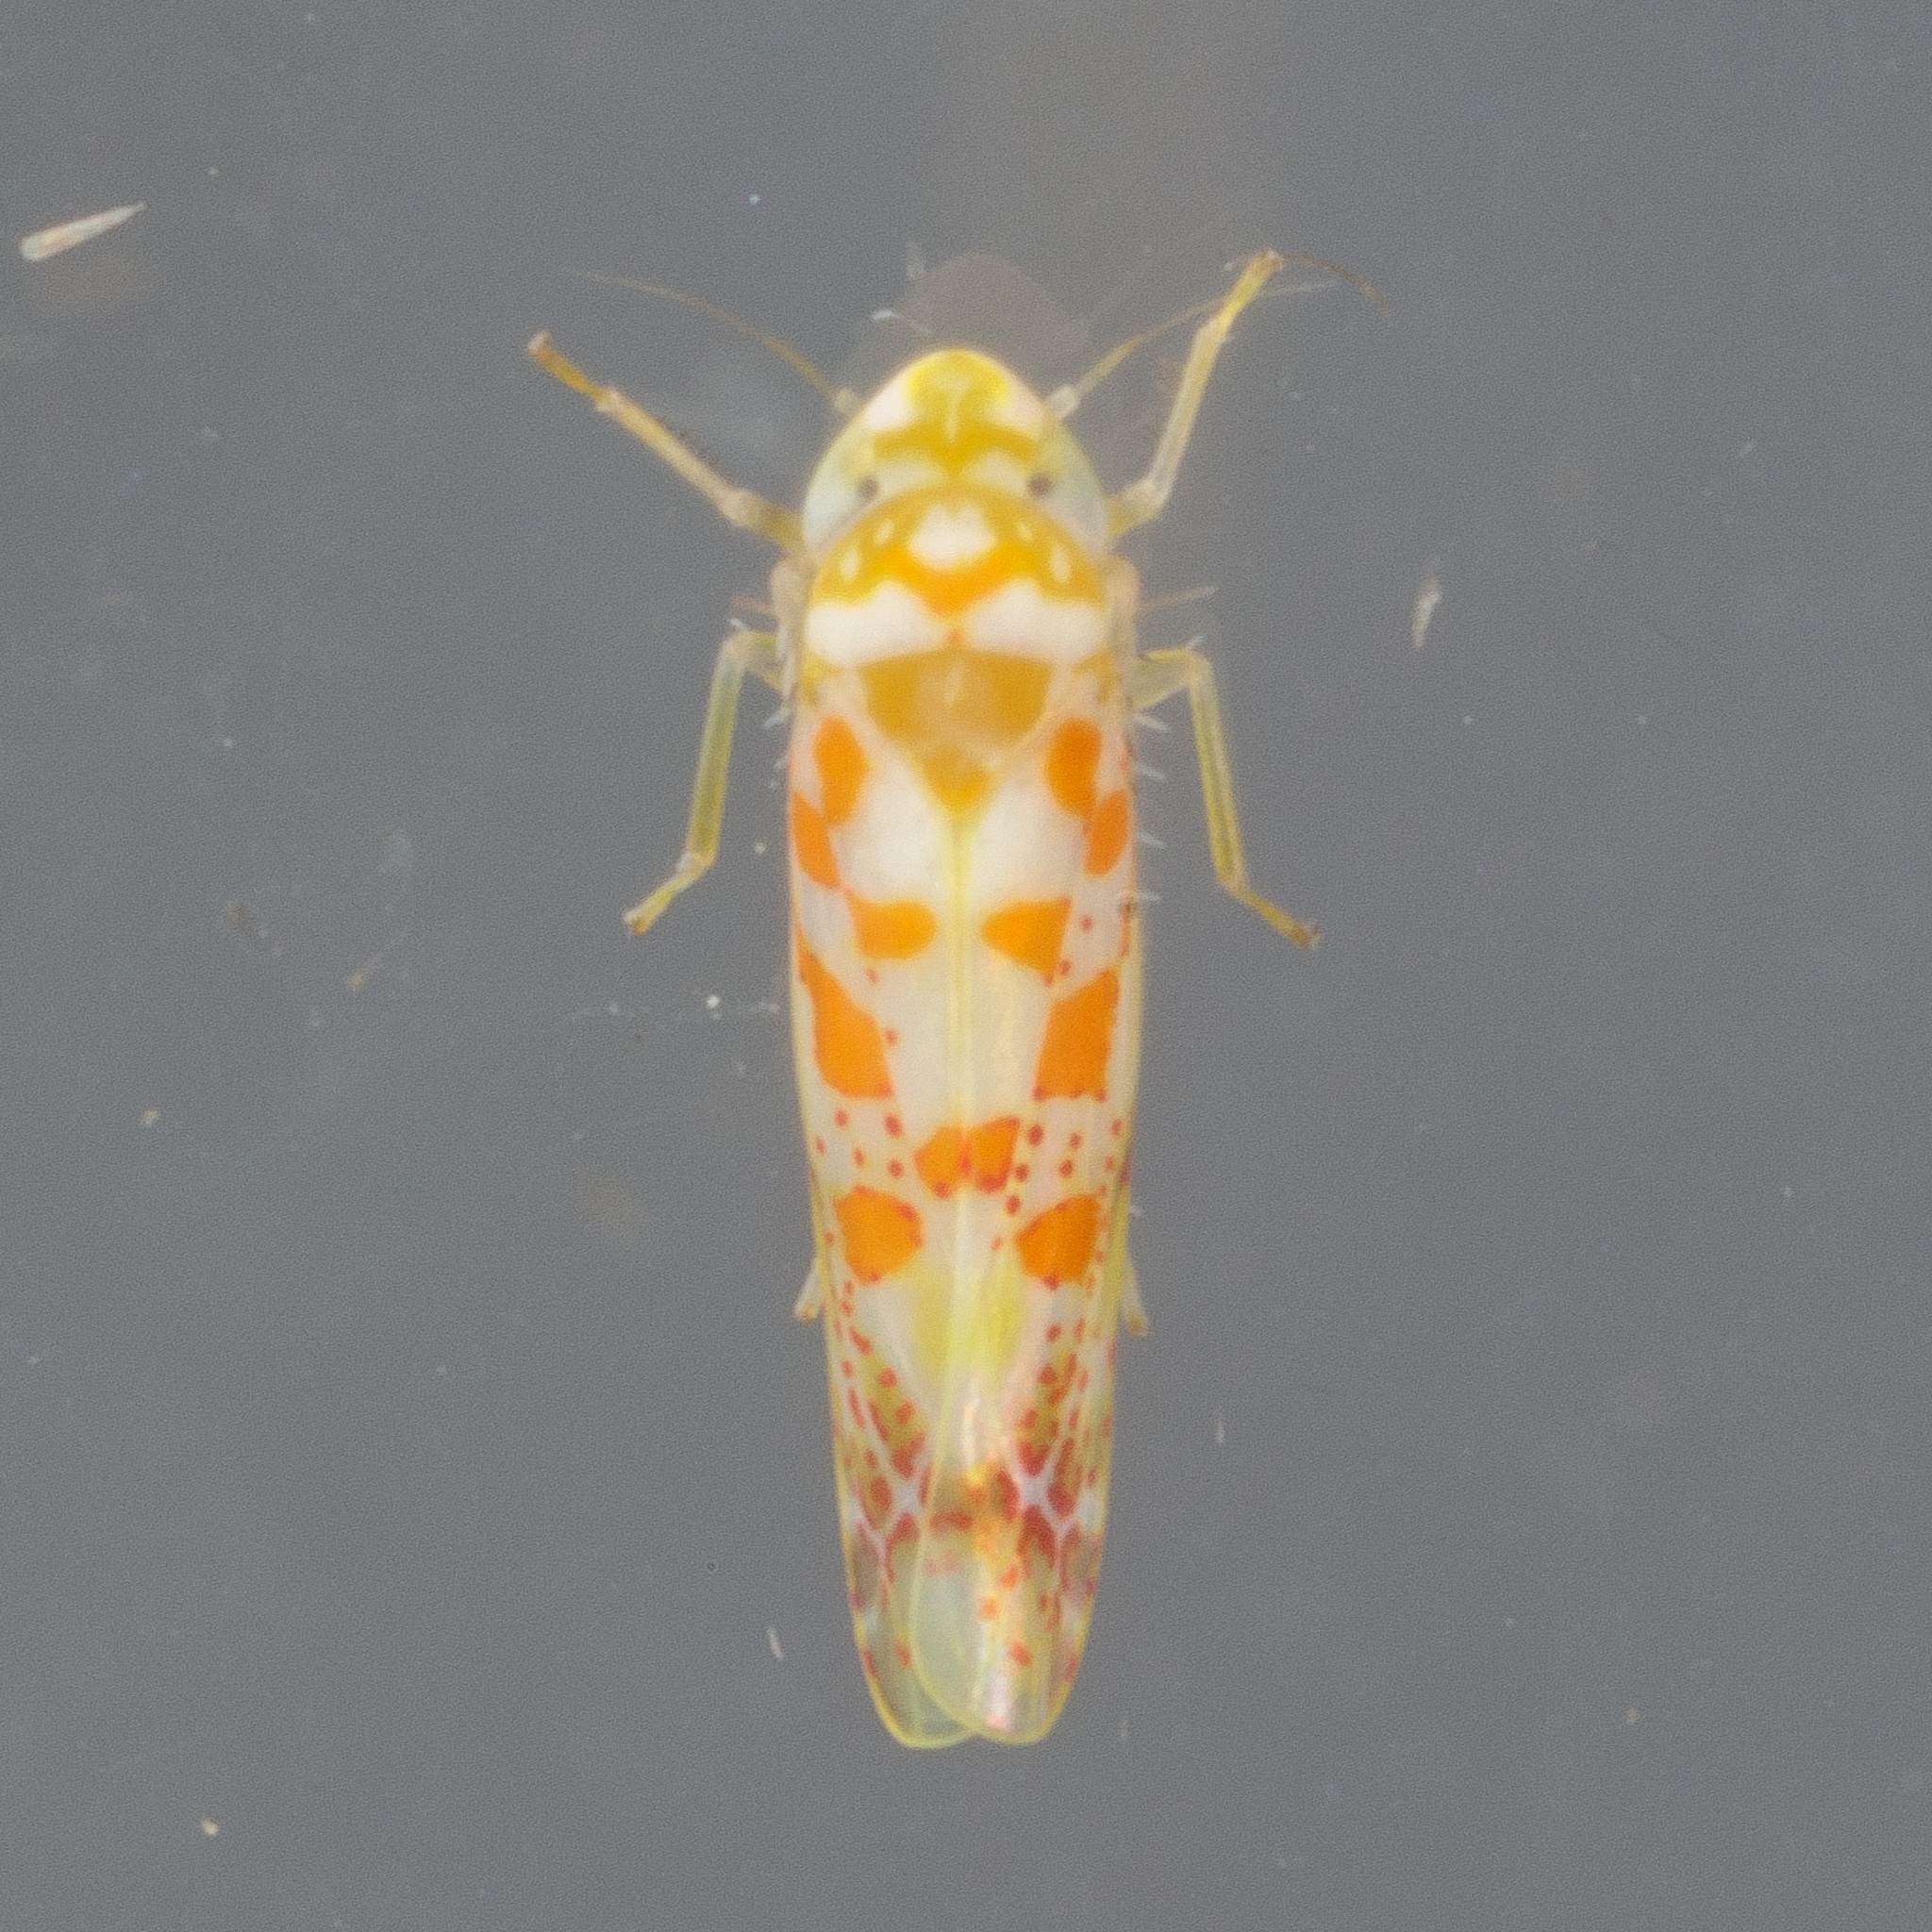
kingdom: Animalia
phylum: Arthropoda
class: Insecta
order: Hemiptera
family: Cicadellidae
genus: Dikrella
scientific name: Dikrella maculata
